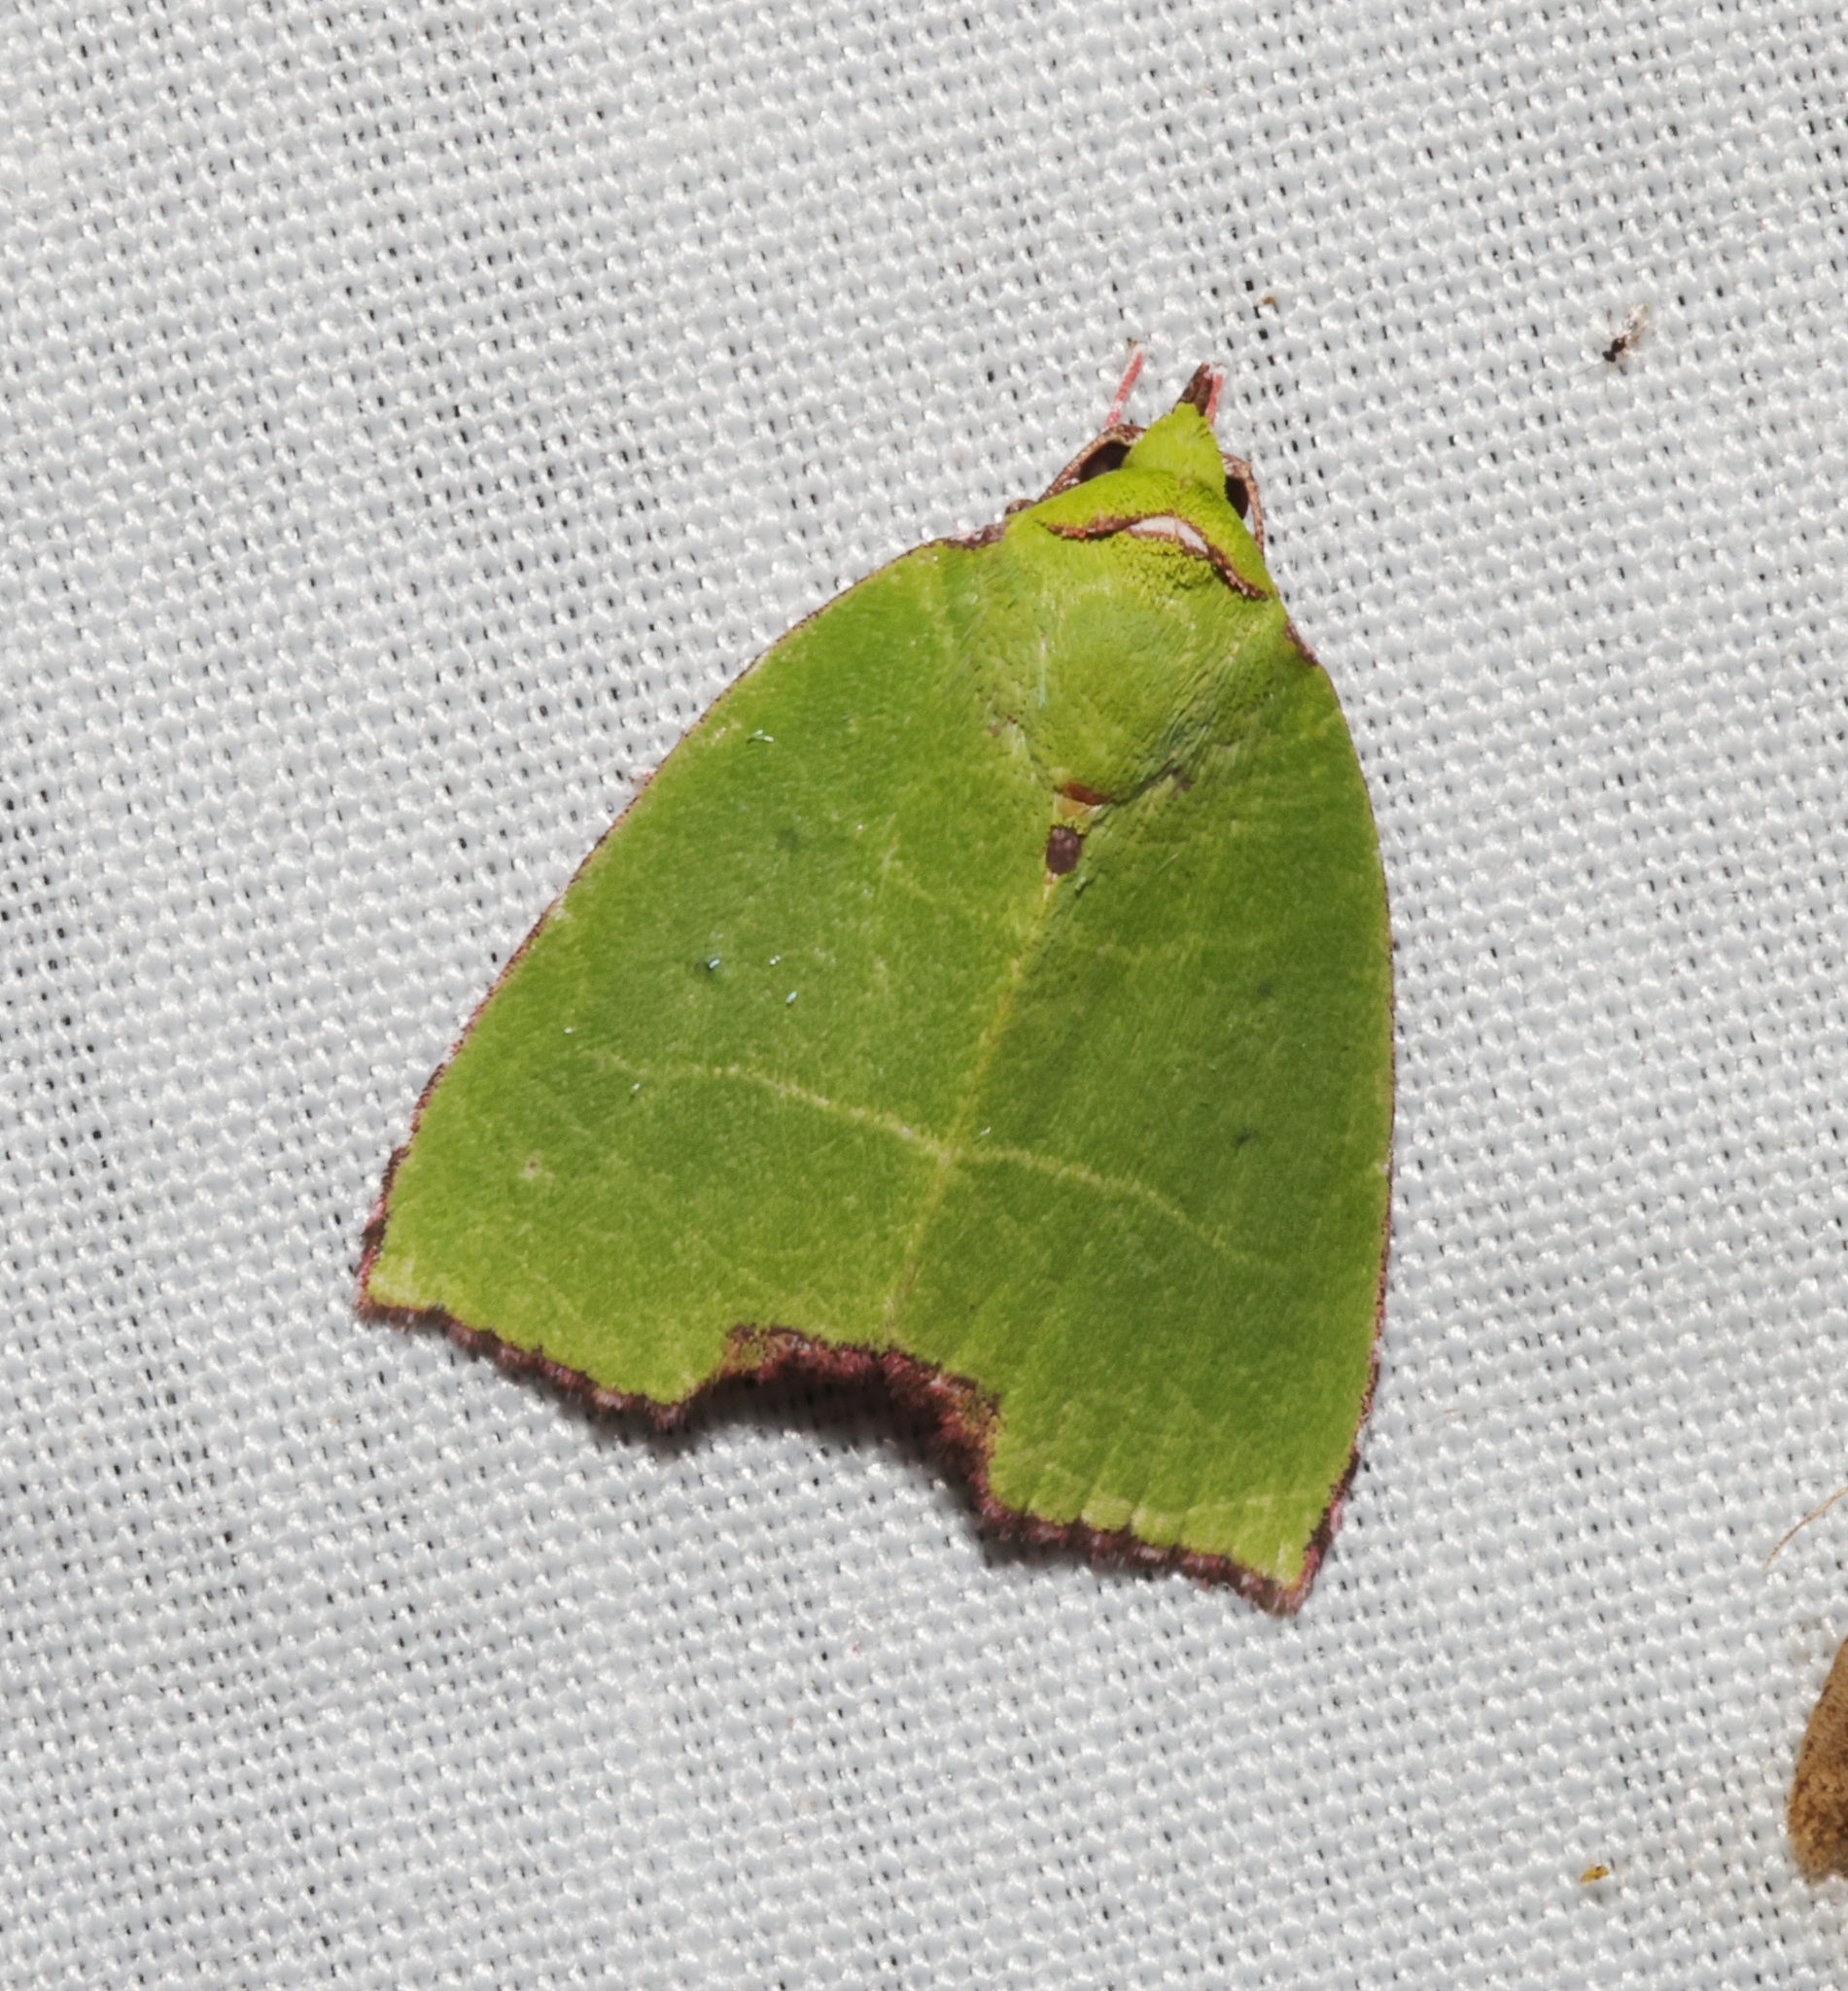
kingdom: Animalia
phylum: Arthropoda
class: Insecta
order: Lepidoptera
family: Nolidae
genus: Paracrama
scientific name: Paracrama angulata
